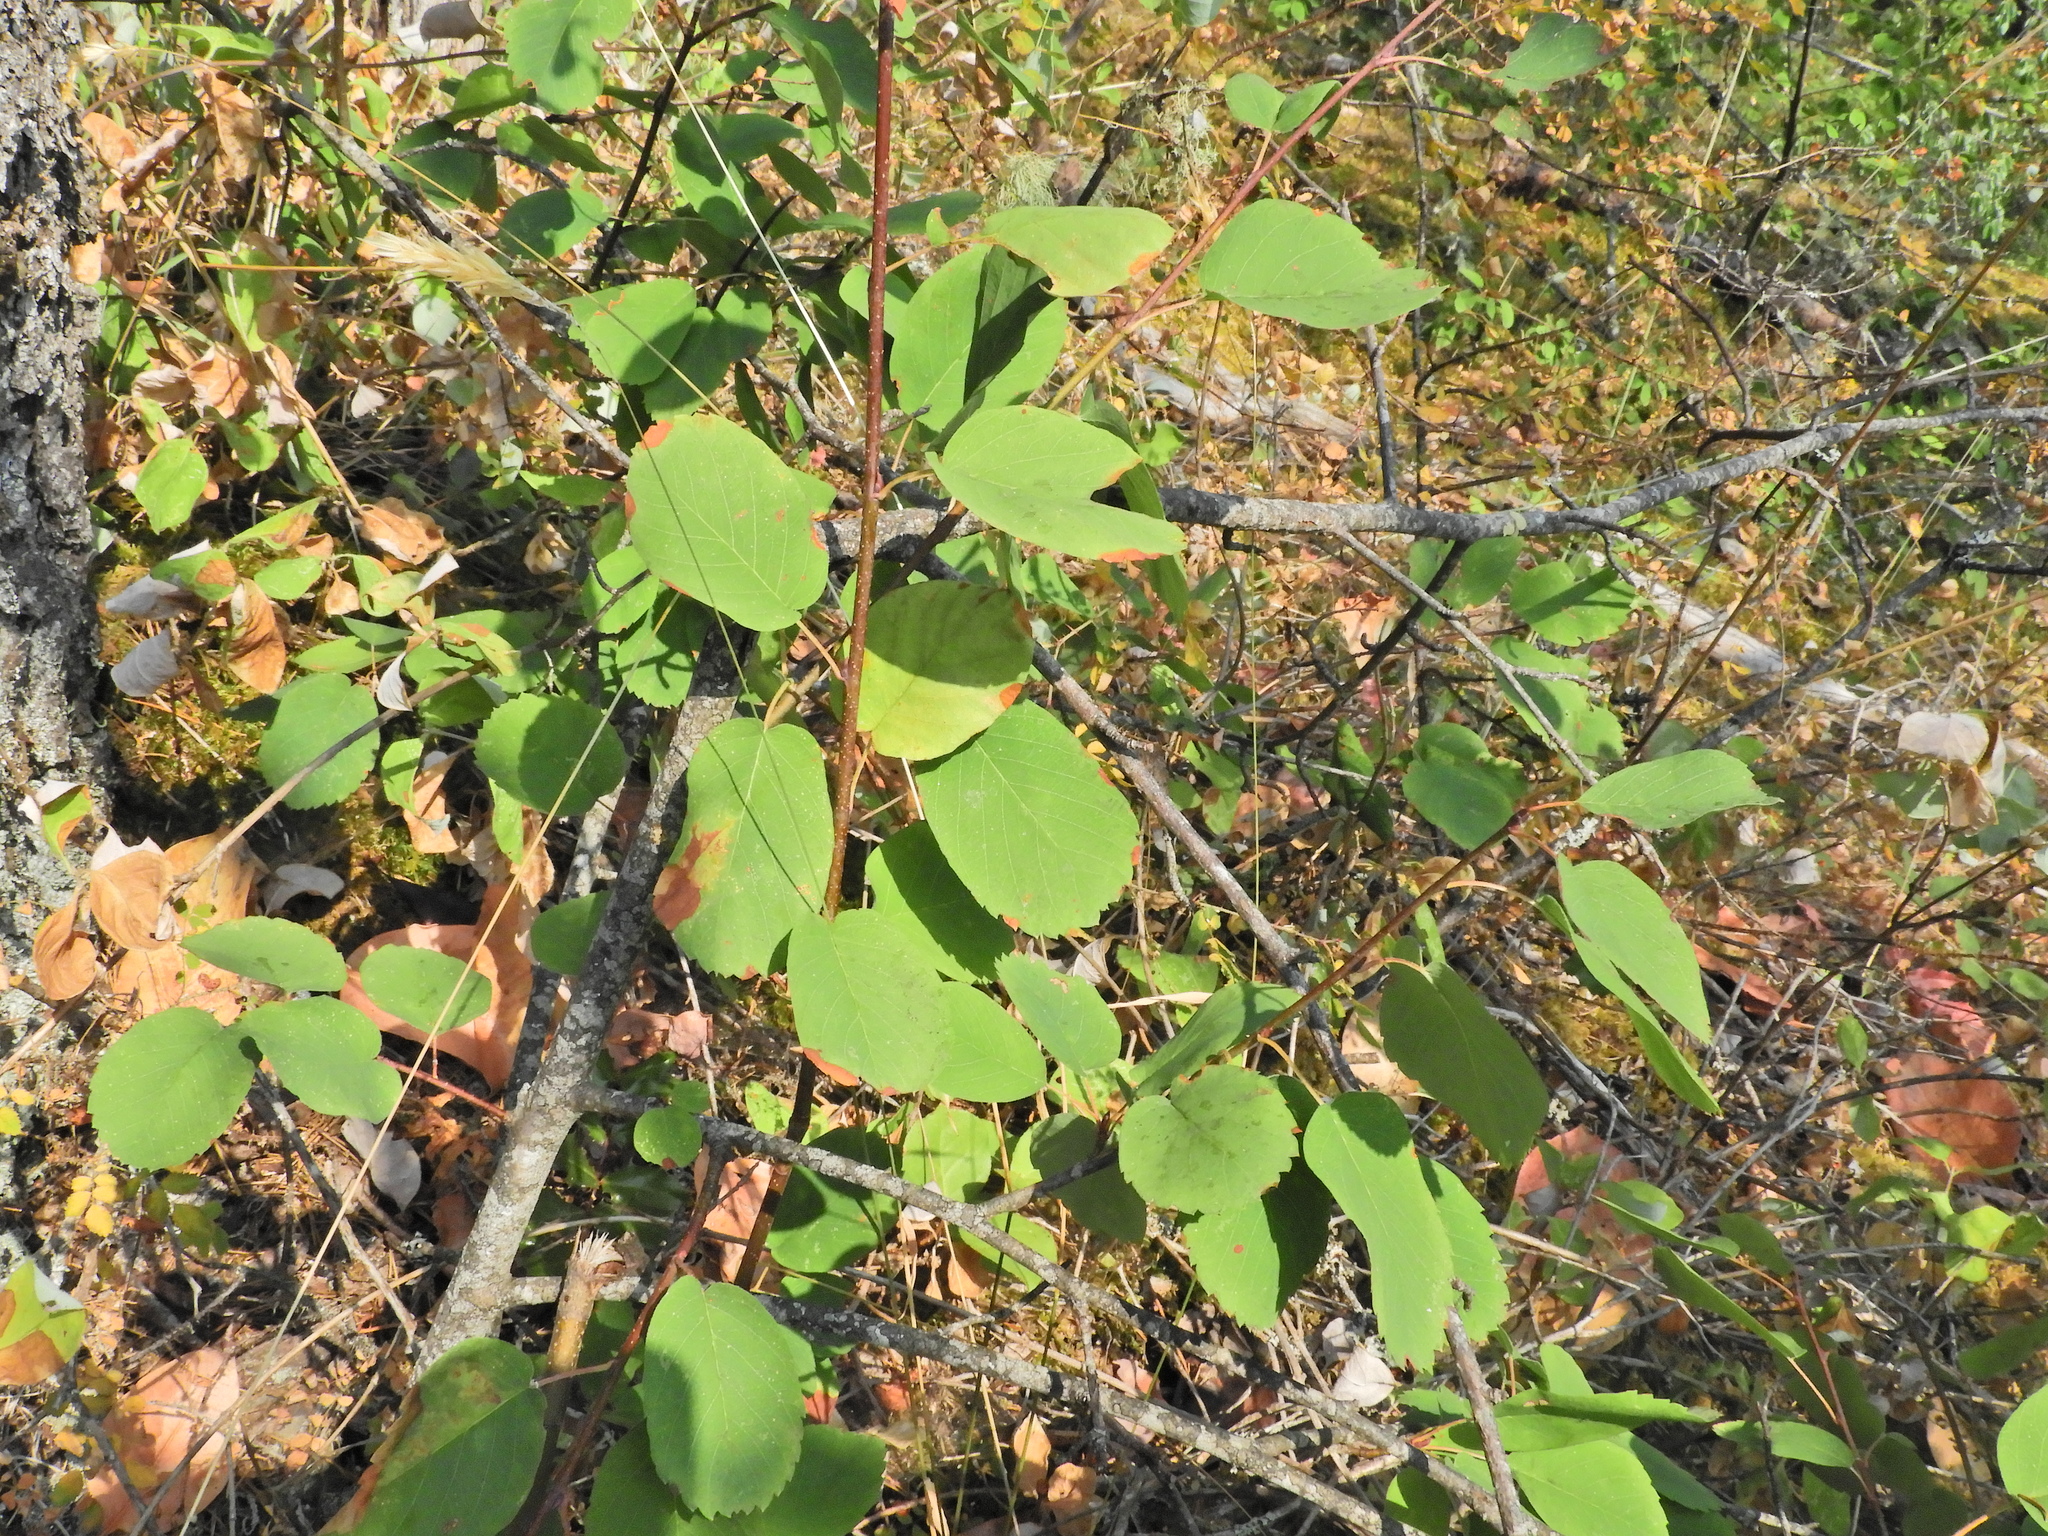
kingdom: Plantae
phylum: Tracheophyta
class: Magnoliopsida
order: Rosales
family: Rosaceae
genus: Amelanchier
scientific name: Amelanchier alnifolia
